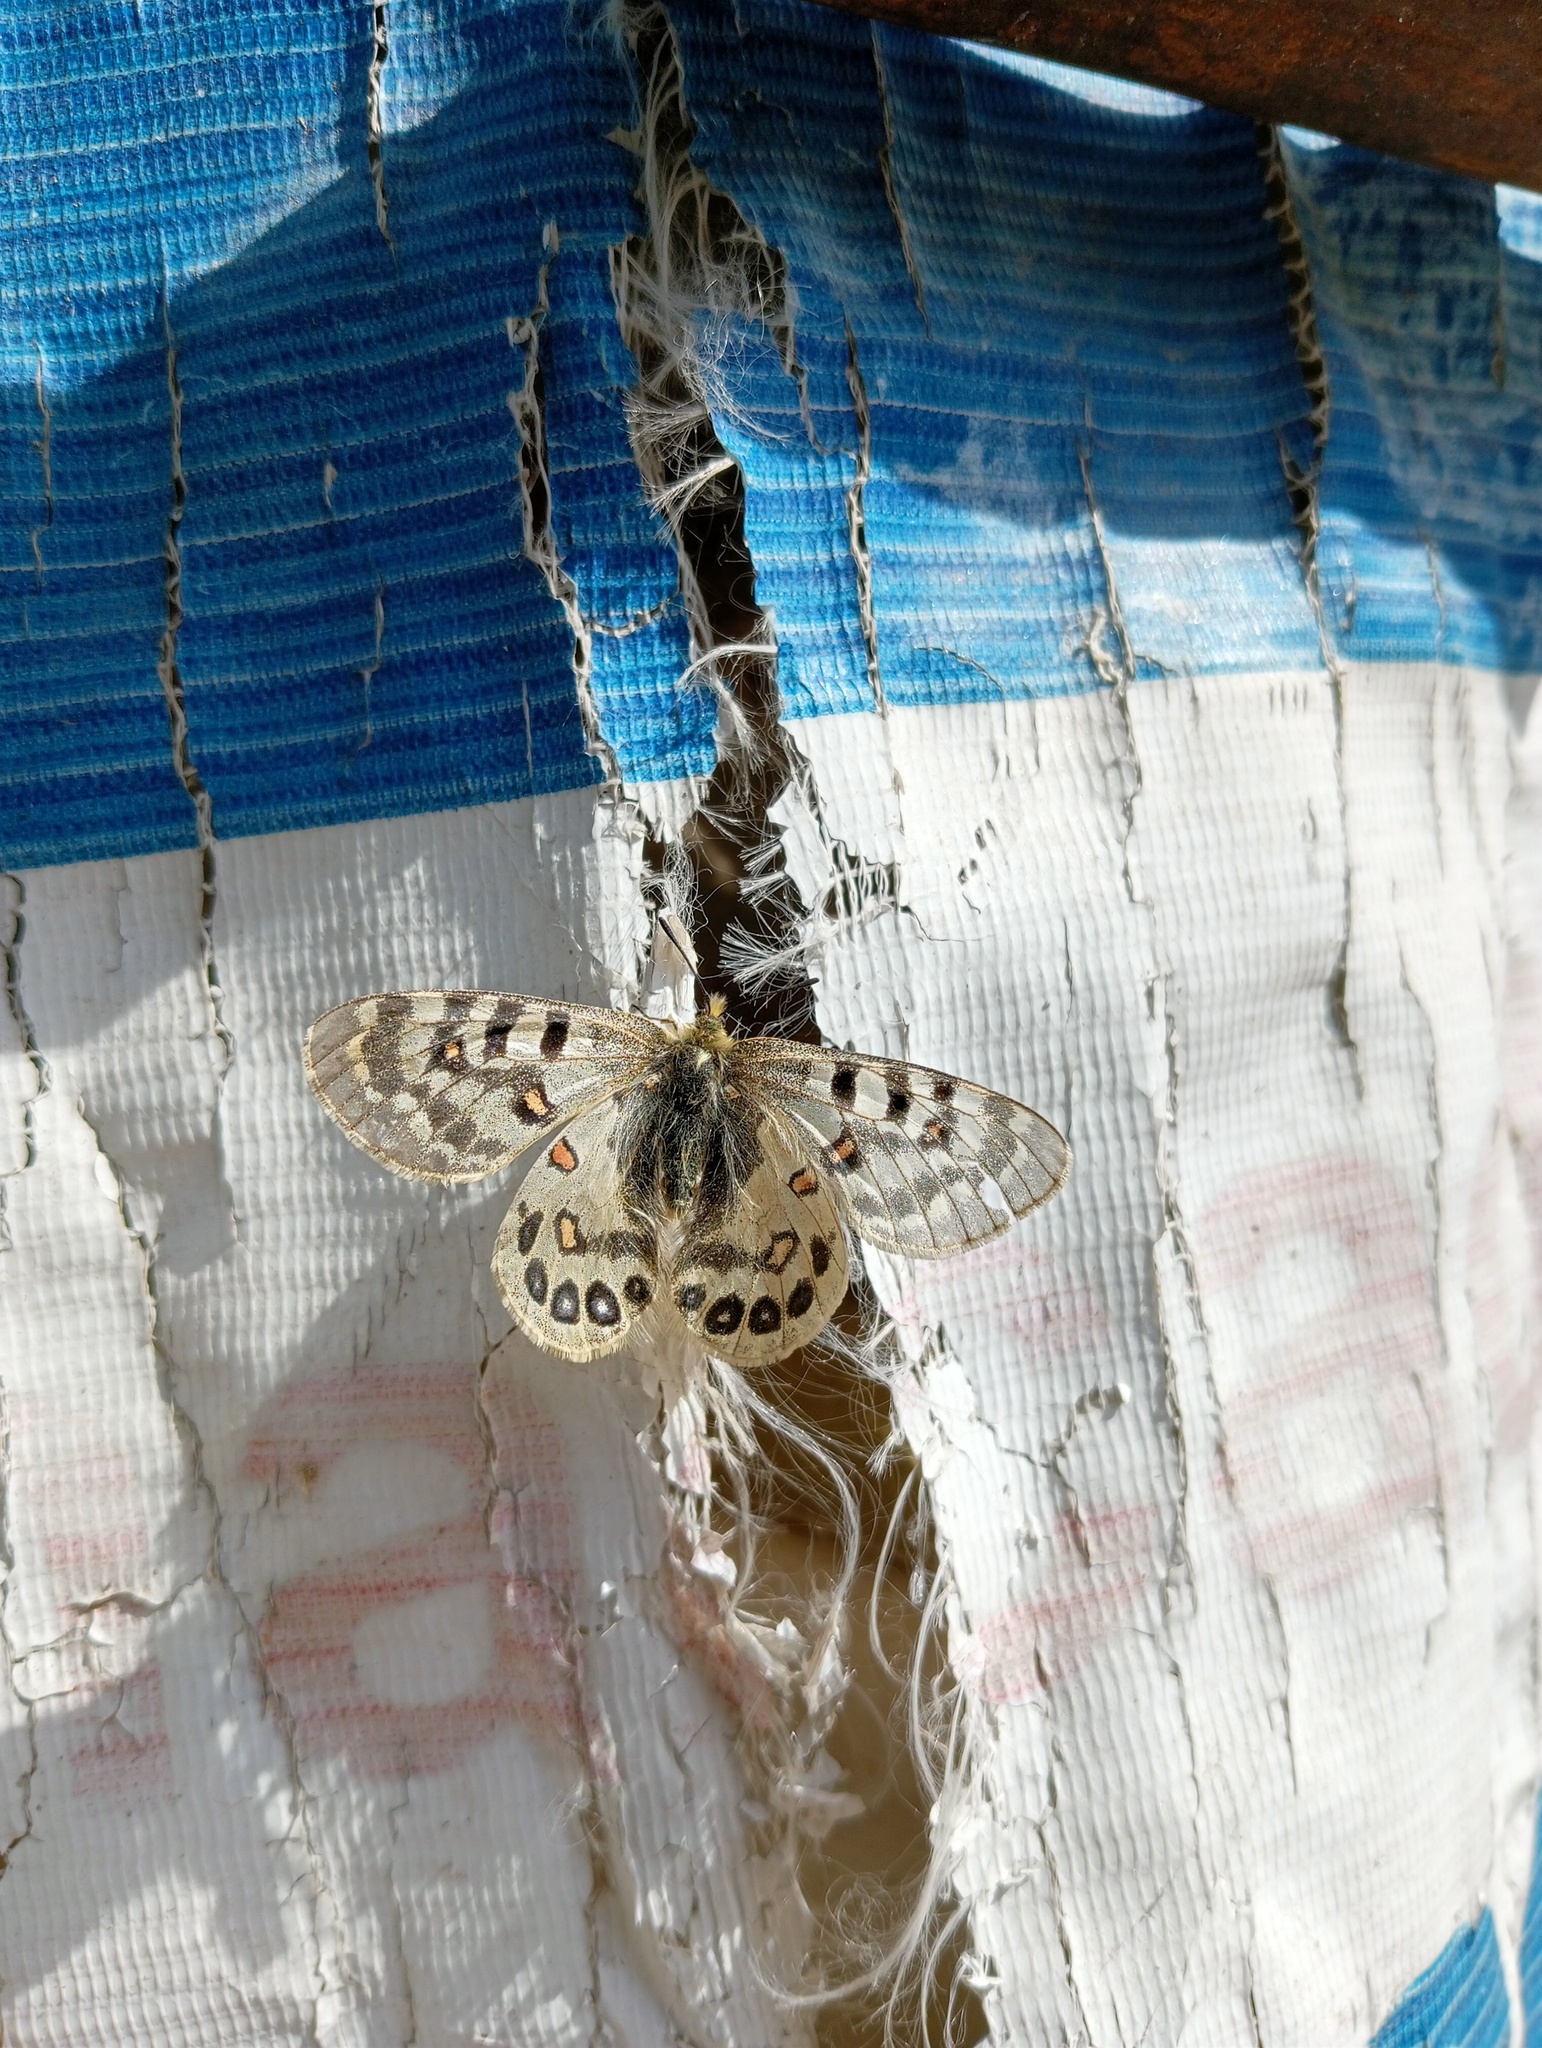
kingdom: Animalia
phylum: Arthropoda
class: Insecta
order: Lepidoptera
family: Papilionidae
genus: Parnassius
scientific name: Parnassius hardwickii
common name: Common blue apollo
